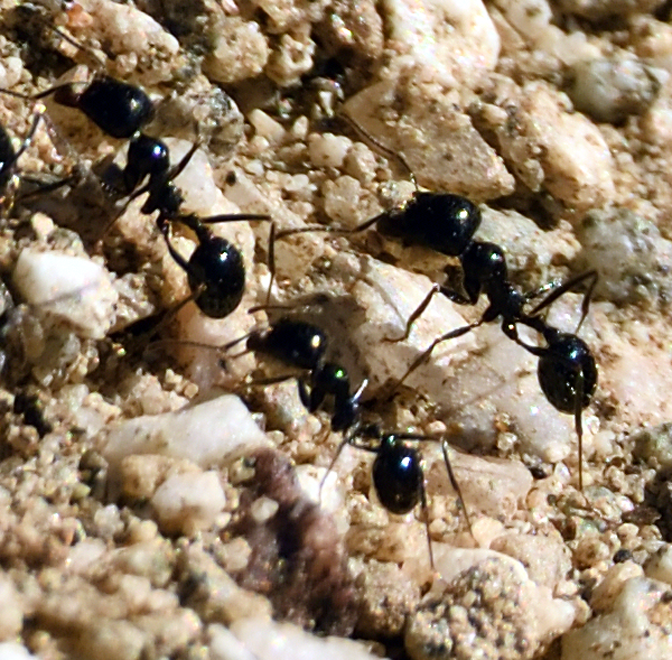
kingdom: Animalia
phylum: Arthropoda
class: Insecta
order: Hymenoptera
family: Formicidae
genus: Messor
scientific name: Messor pergandei
